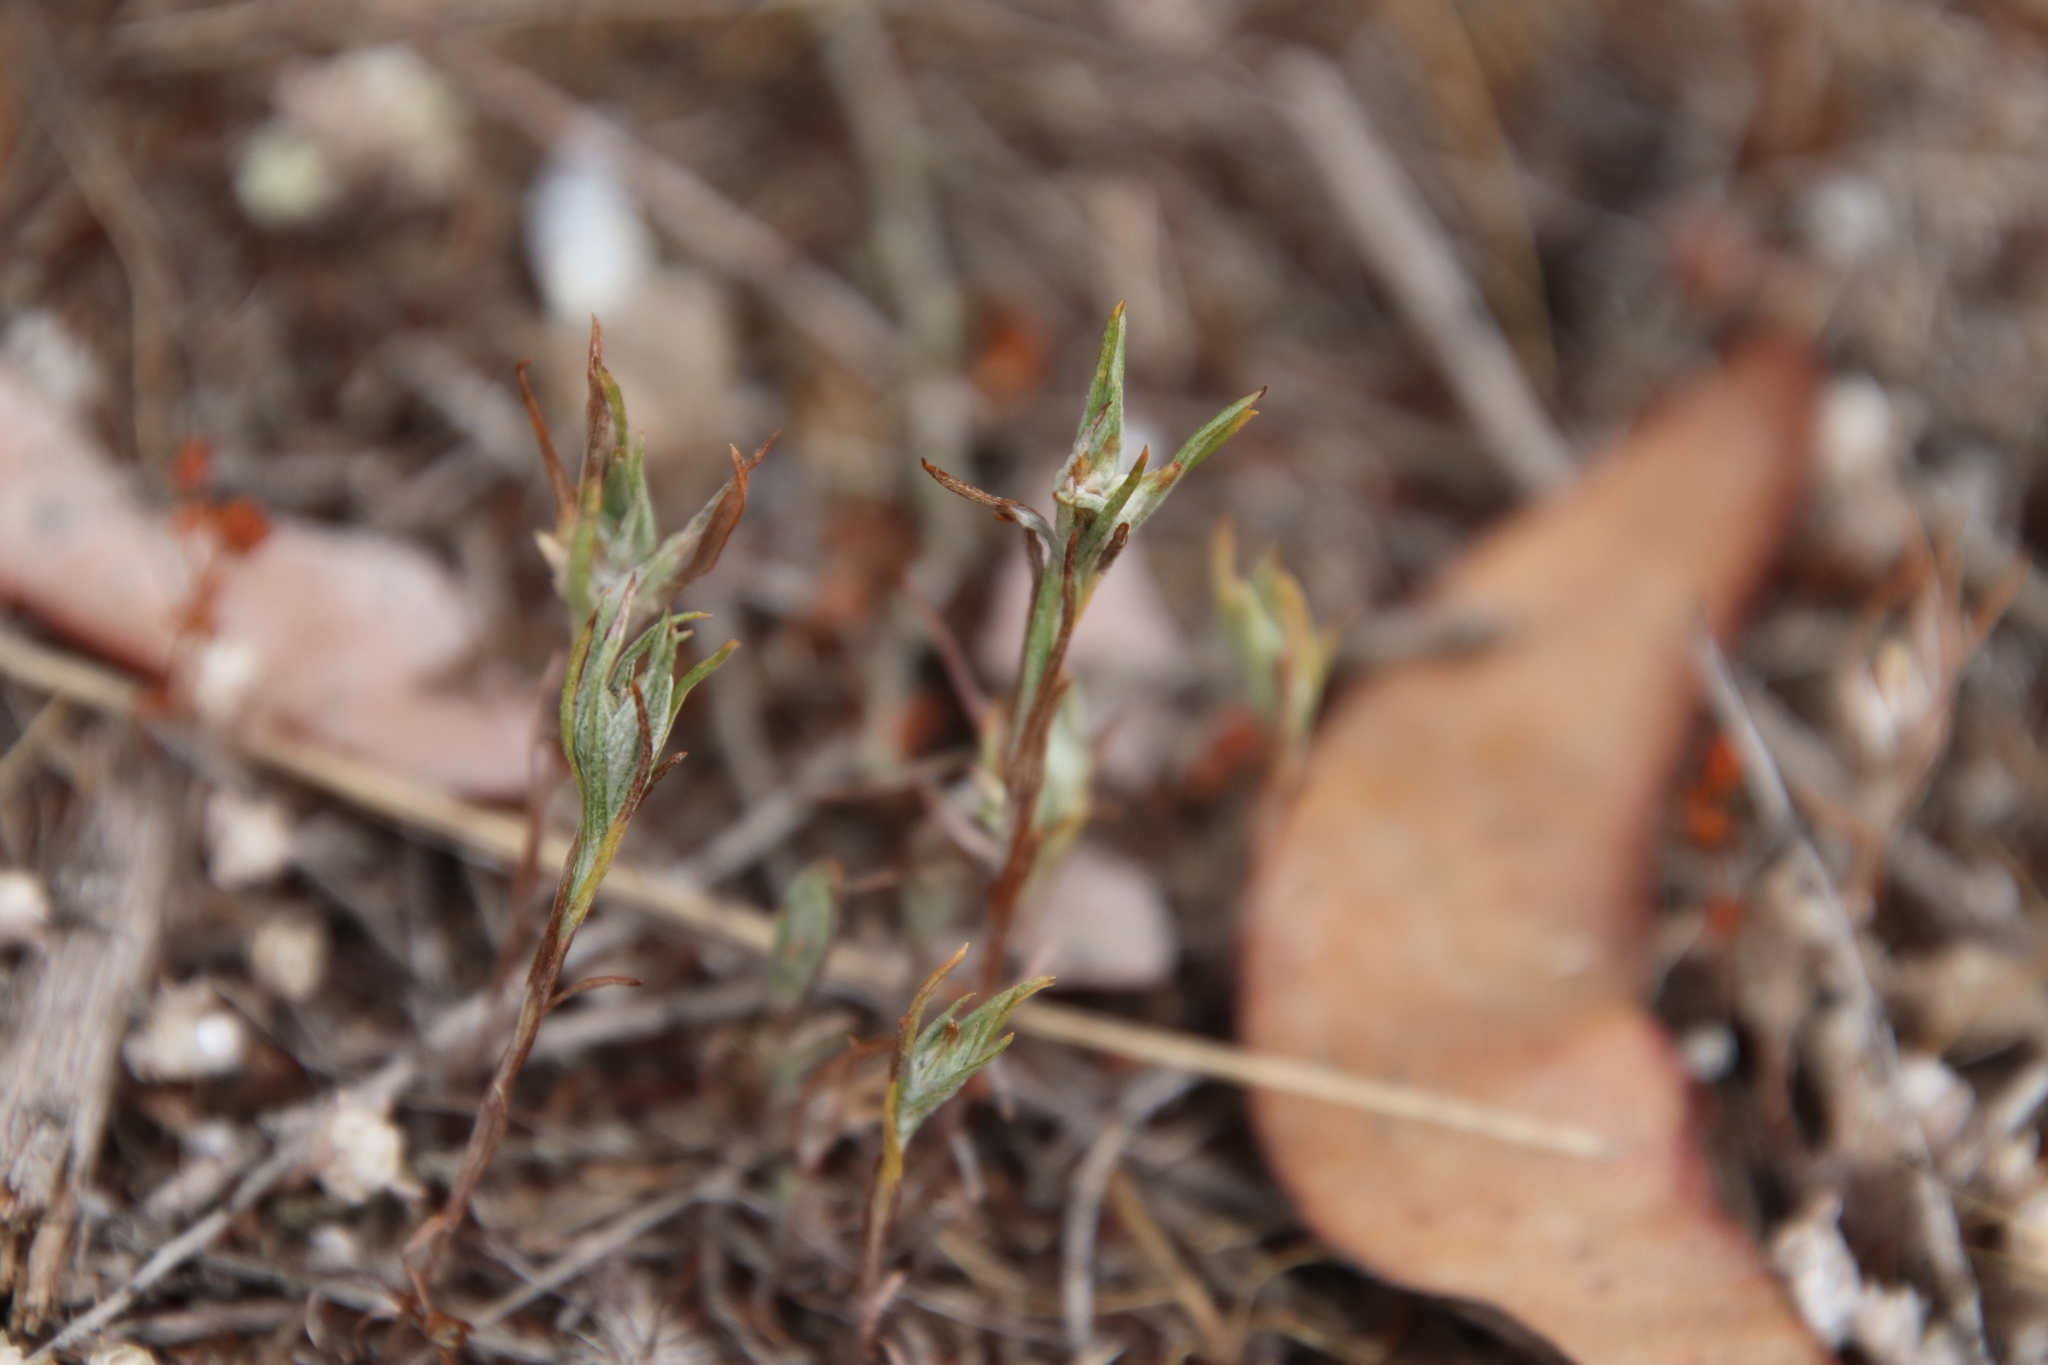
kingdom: Plantae
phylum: Tracheophyta
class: Magnoliopsida
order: Asterales
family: Asteraceae
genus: Logfia
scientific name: Logfia gallica
